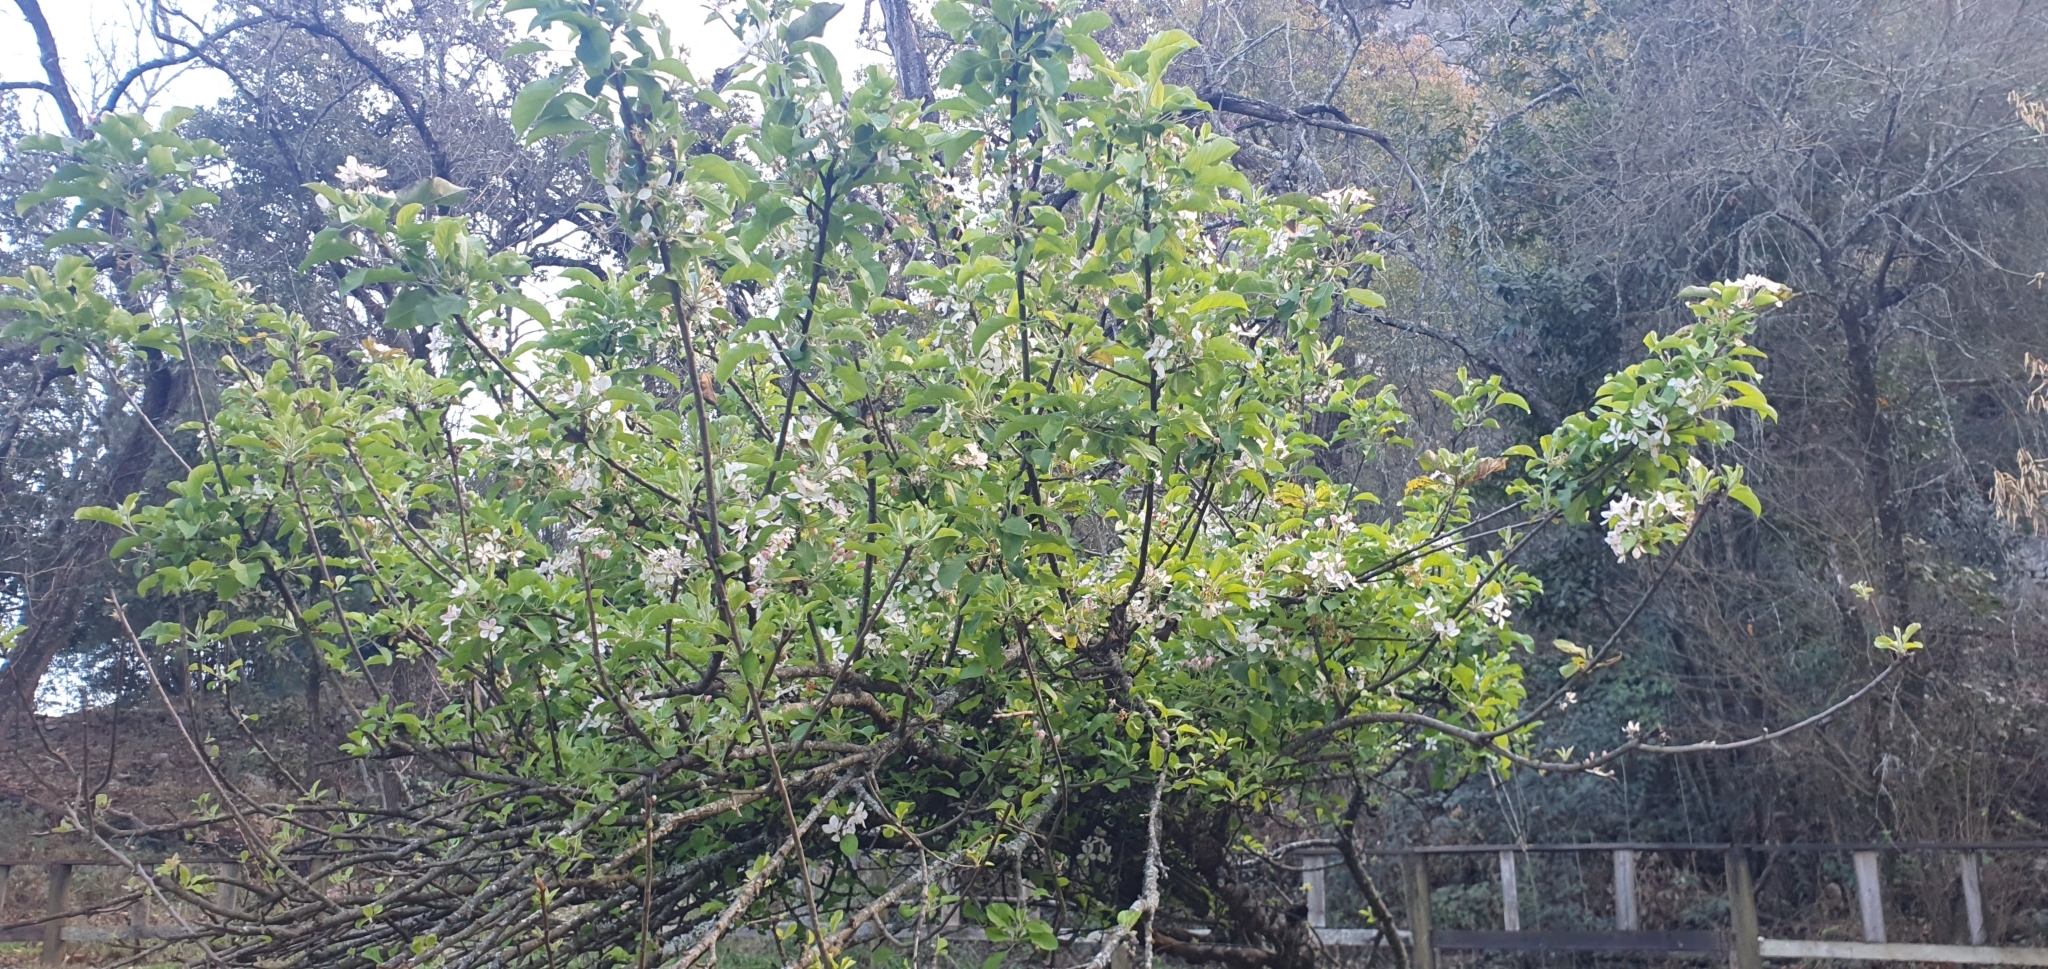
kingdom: Plantae
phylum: Tracheophyta
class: Magnoliopsida
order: Rosales
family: Rosaceae
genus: Malus
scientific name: Malus domestica
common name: Apple
